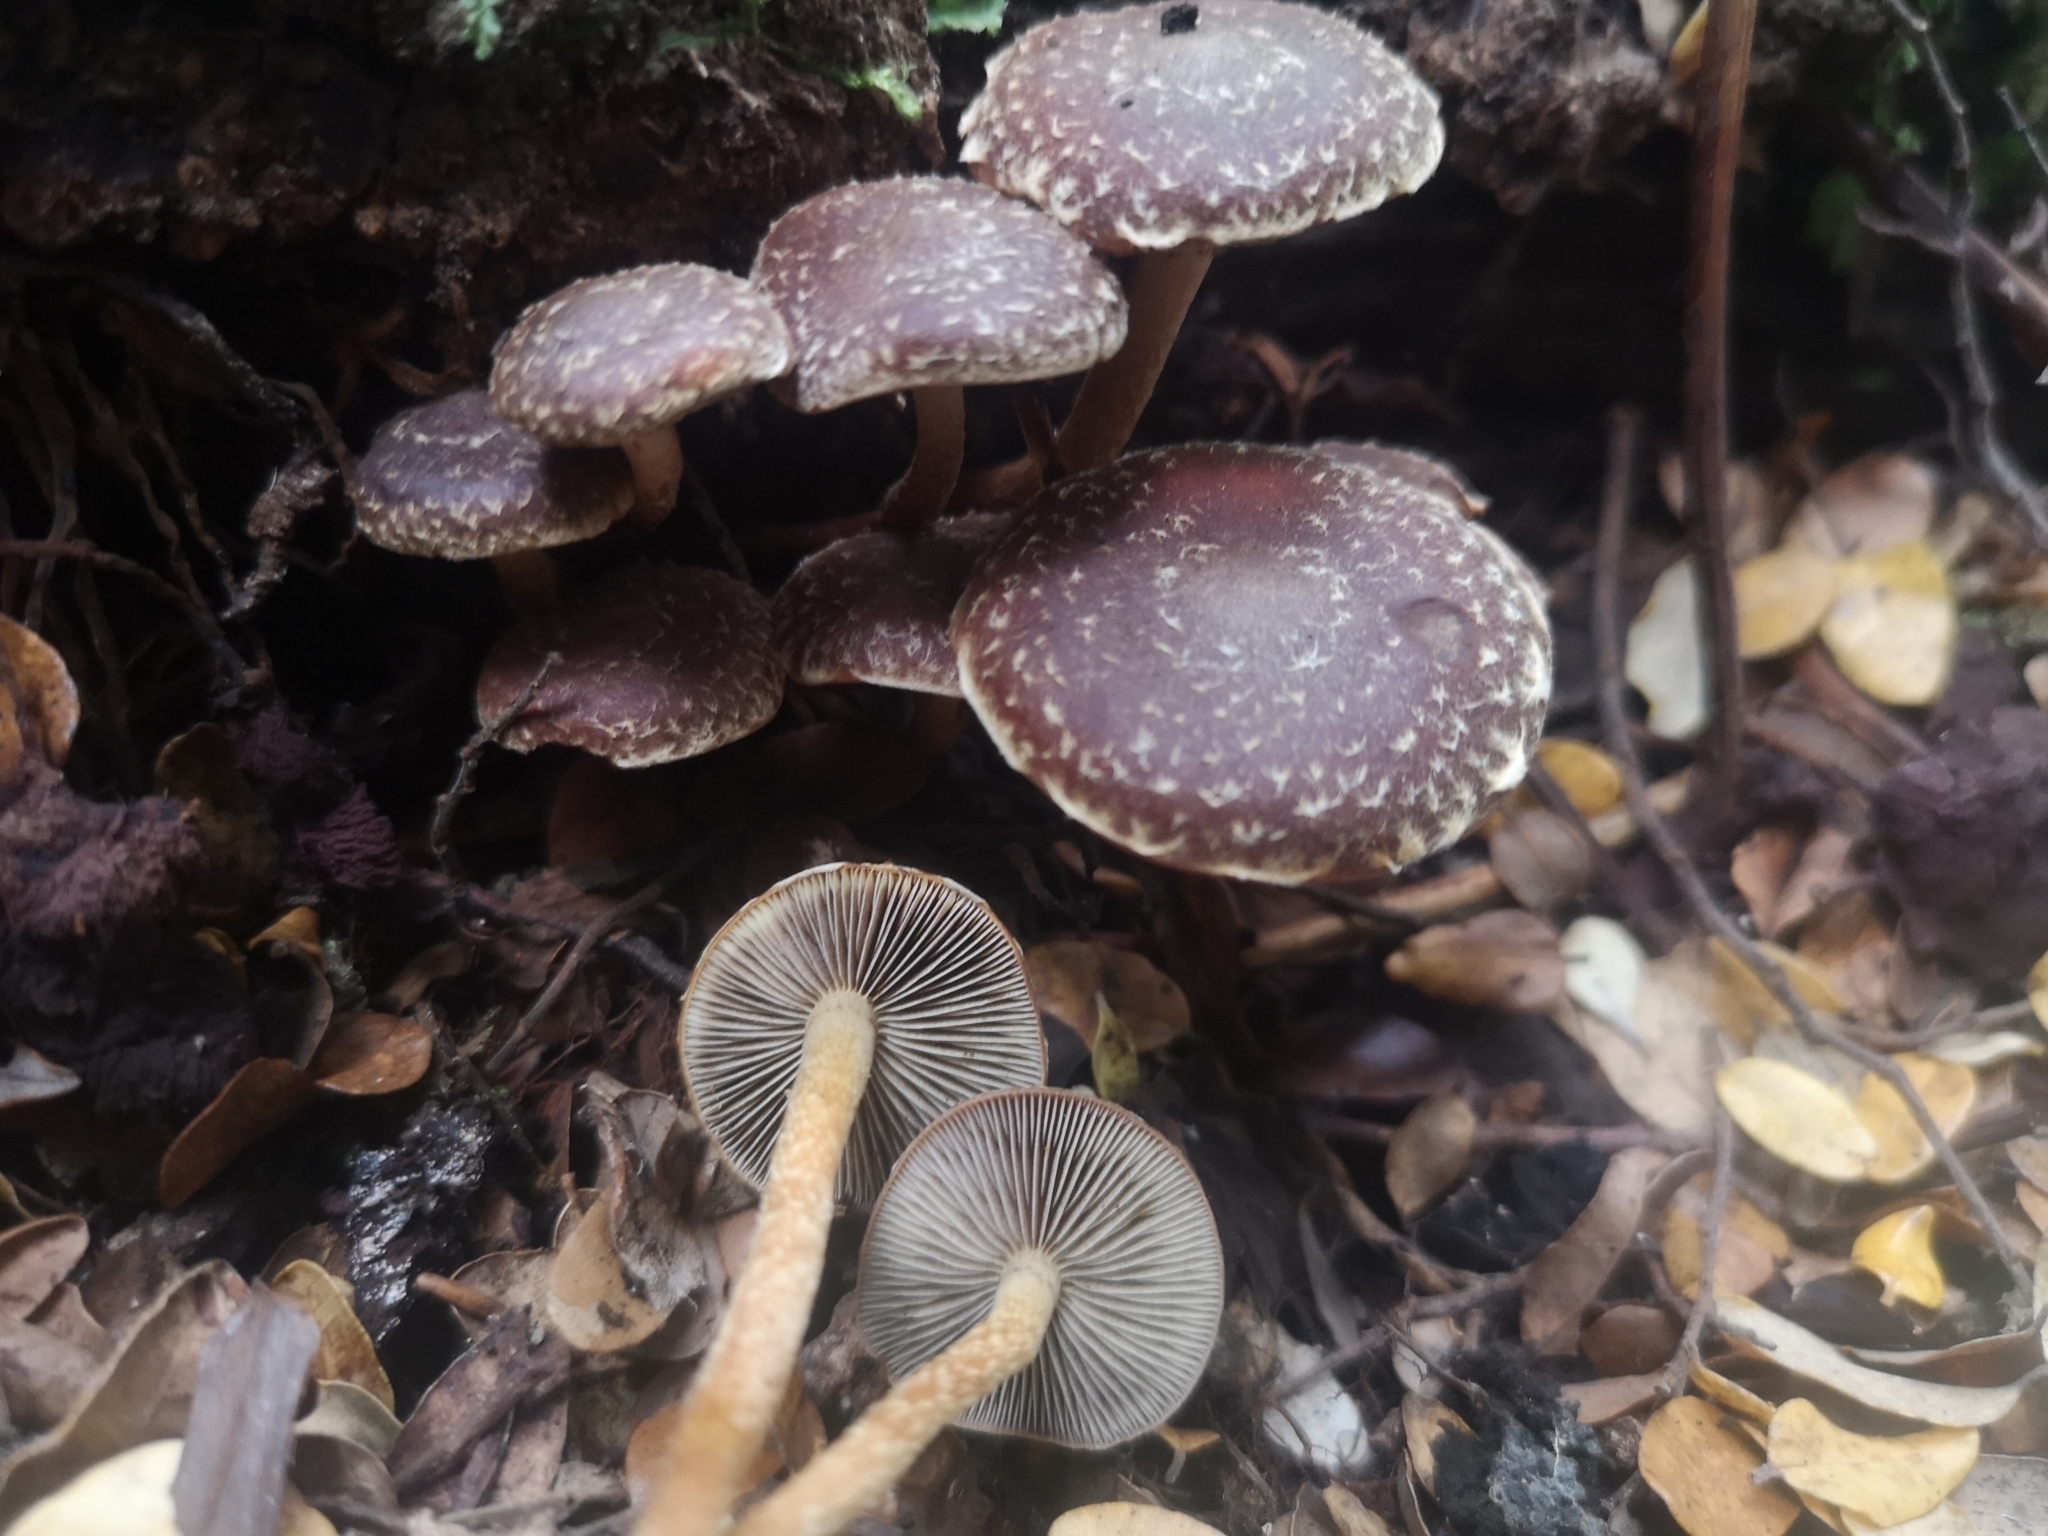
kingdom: Fungi
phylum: Basidiomycota
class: Agaricomycetes
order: Agaricales
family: Strophariaceae
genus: Hypholoma
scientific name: Hypholoma brunneum
